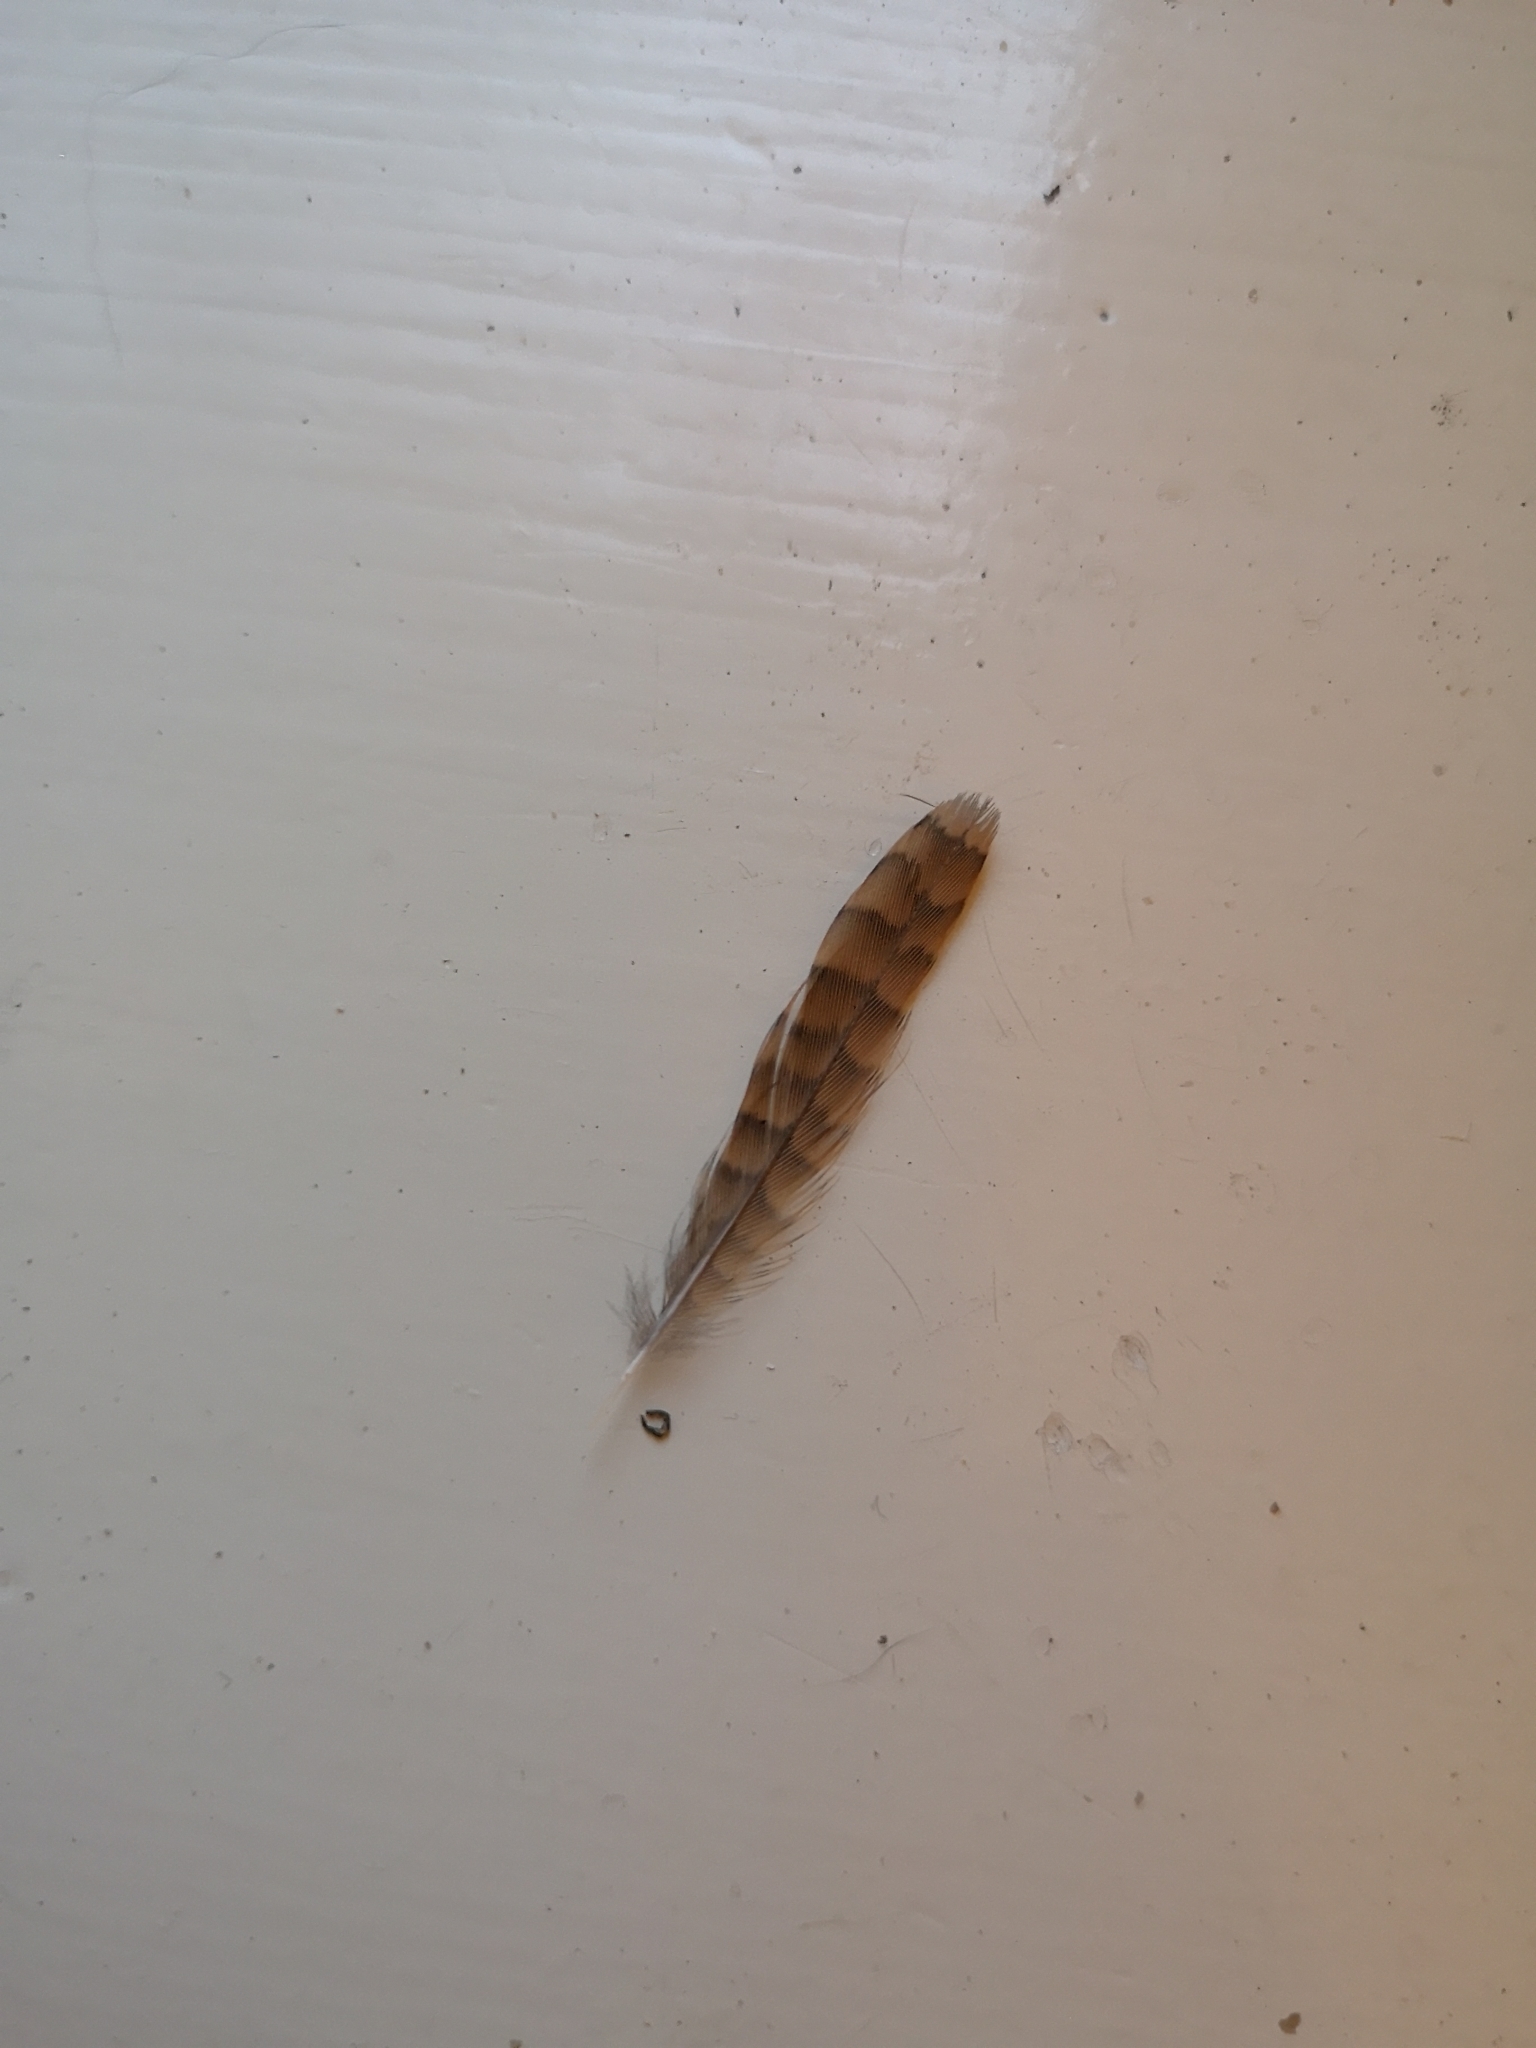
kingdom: Animalia
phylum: Chordata
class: Aves
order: Passeriformes
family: Troglodytidae
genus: Troglodytes
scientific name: Troglodytes troglodytes
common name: Eurasian wren
